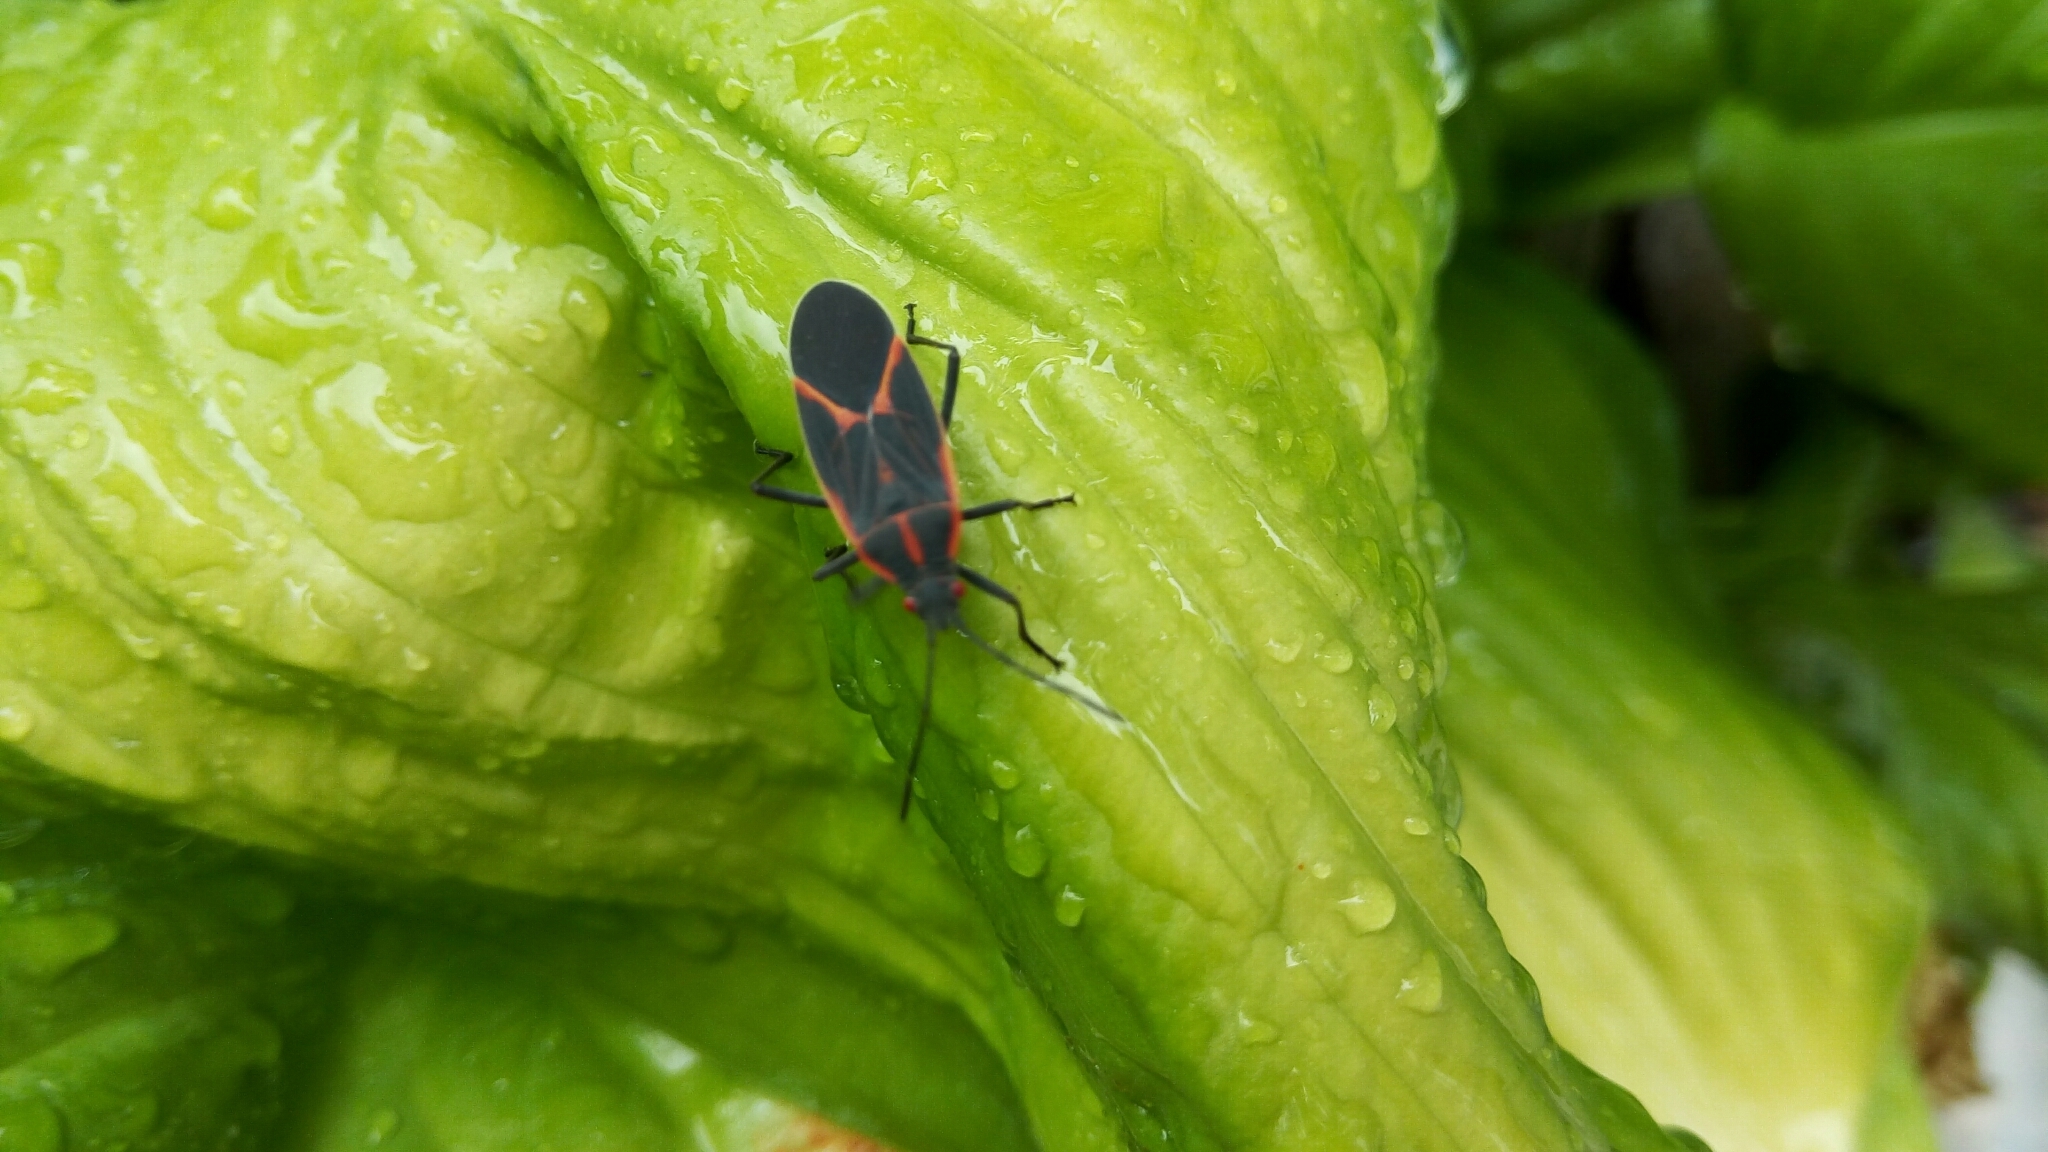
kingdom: Animalia
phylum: Arthropoda
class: Insecta
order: Hemiptera
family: Rhopalidae
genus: Boisea
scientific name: Boisea trivittata
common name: Boxelder bug
